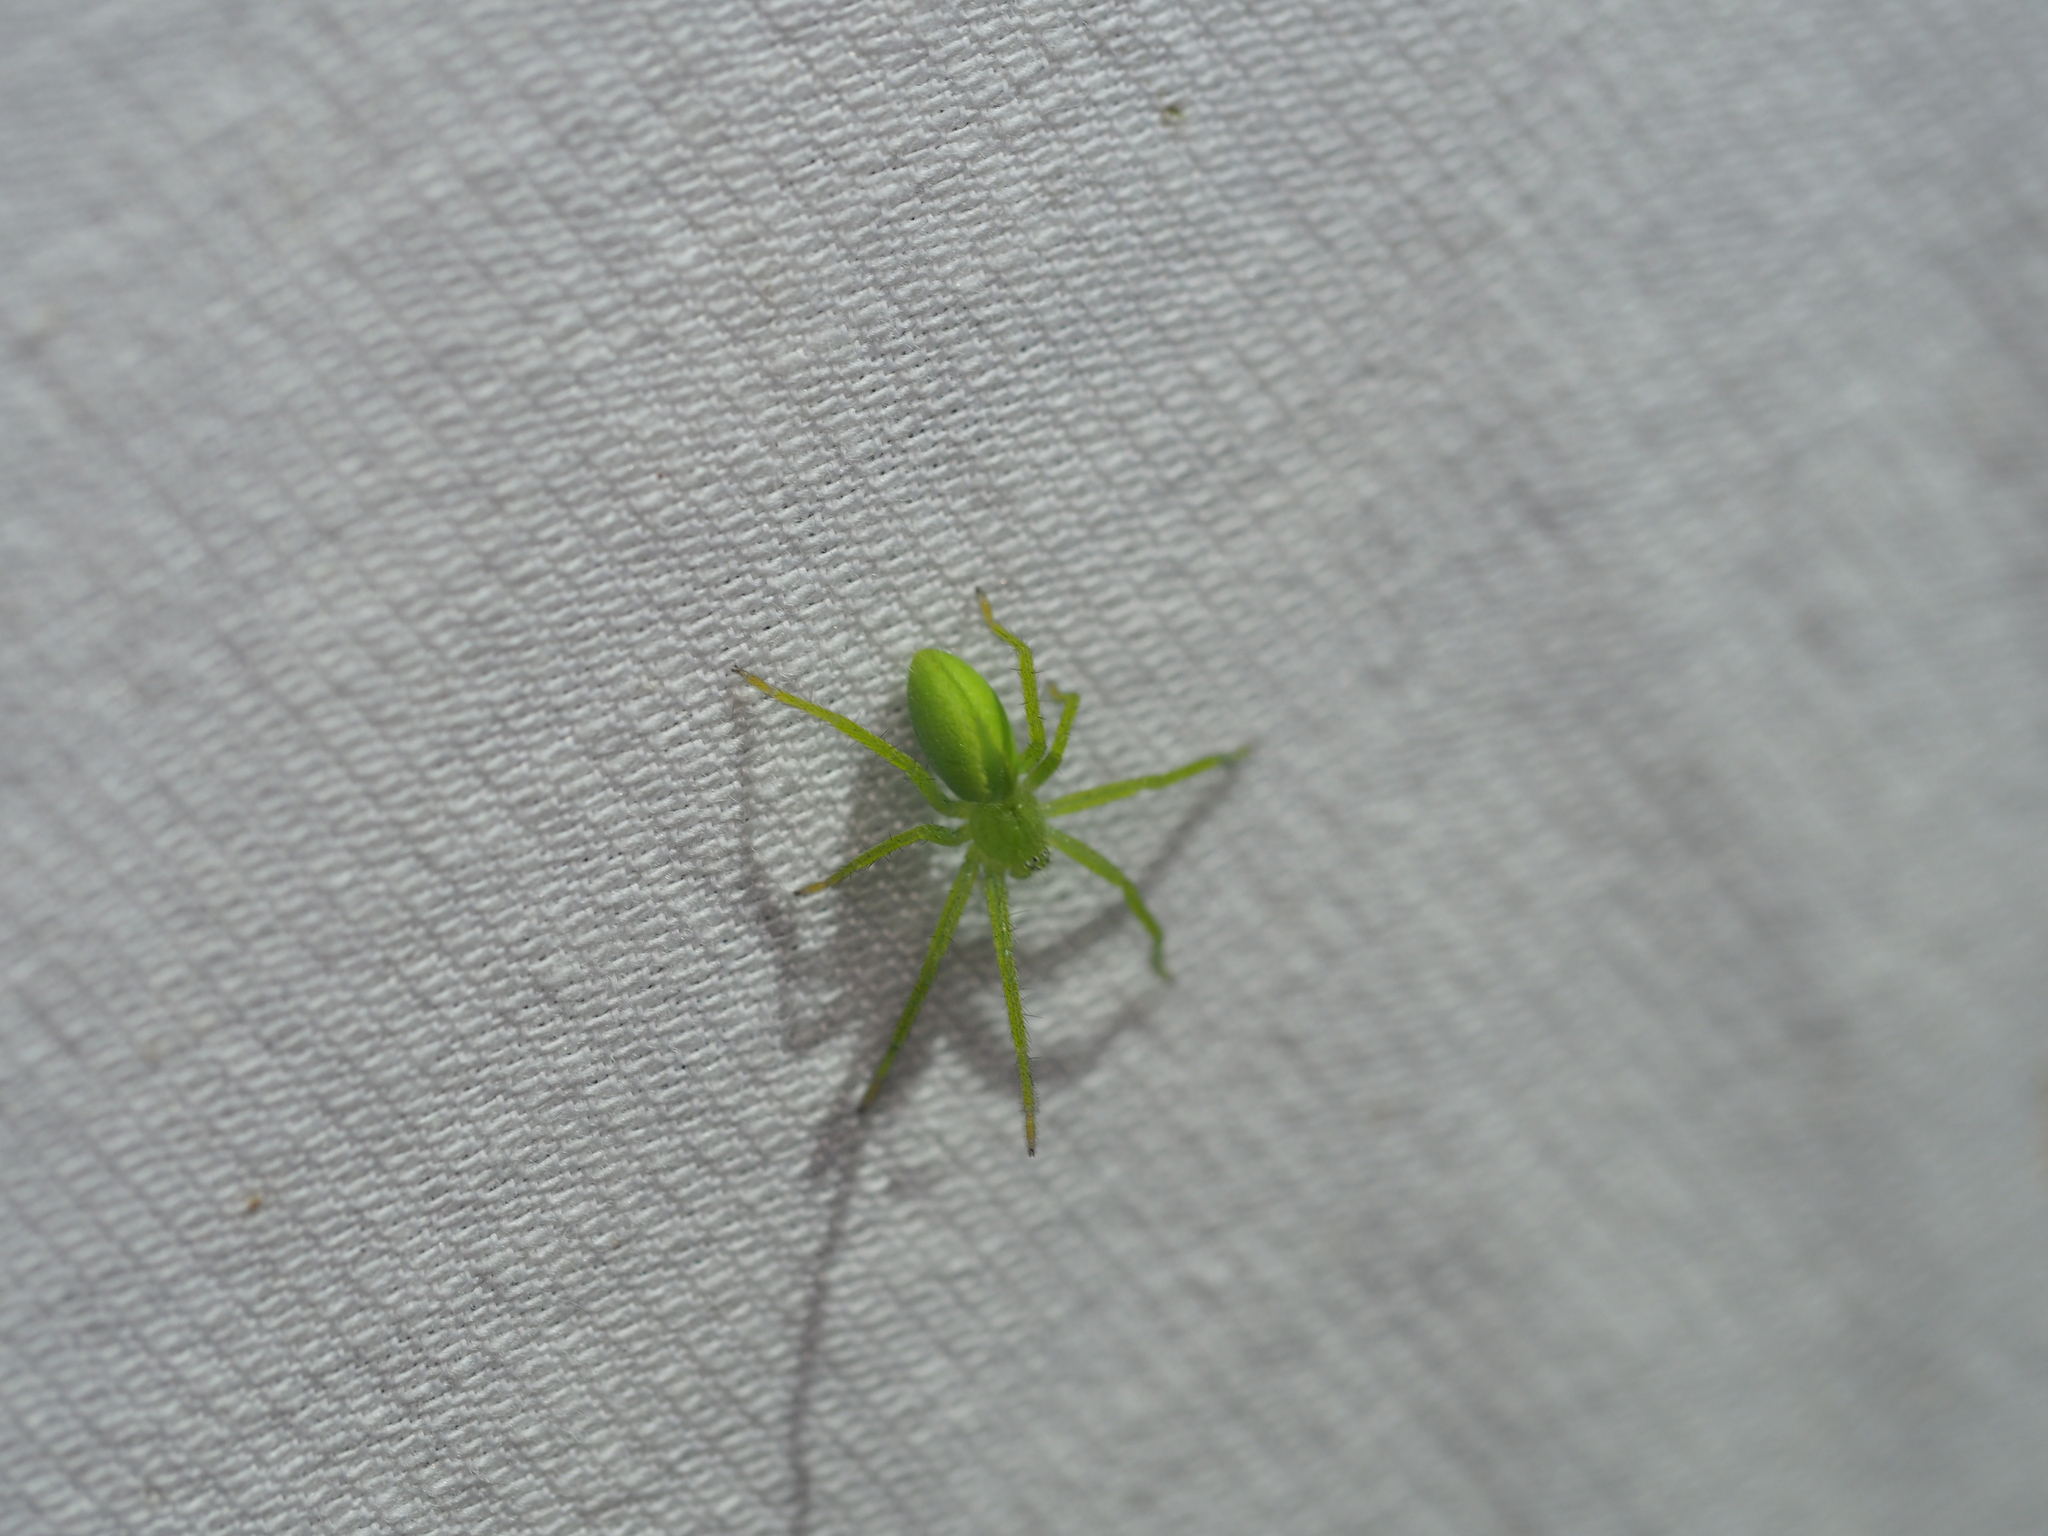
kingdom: Animalia
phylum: Arthropoda
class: Arachnida
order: Araneae
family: Sparassidae
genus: Micrommata
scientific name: Micrommata virescens
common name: Green spider
